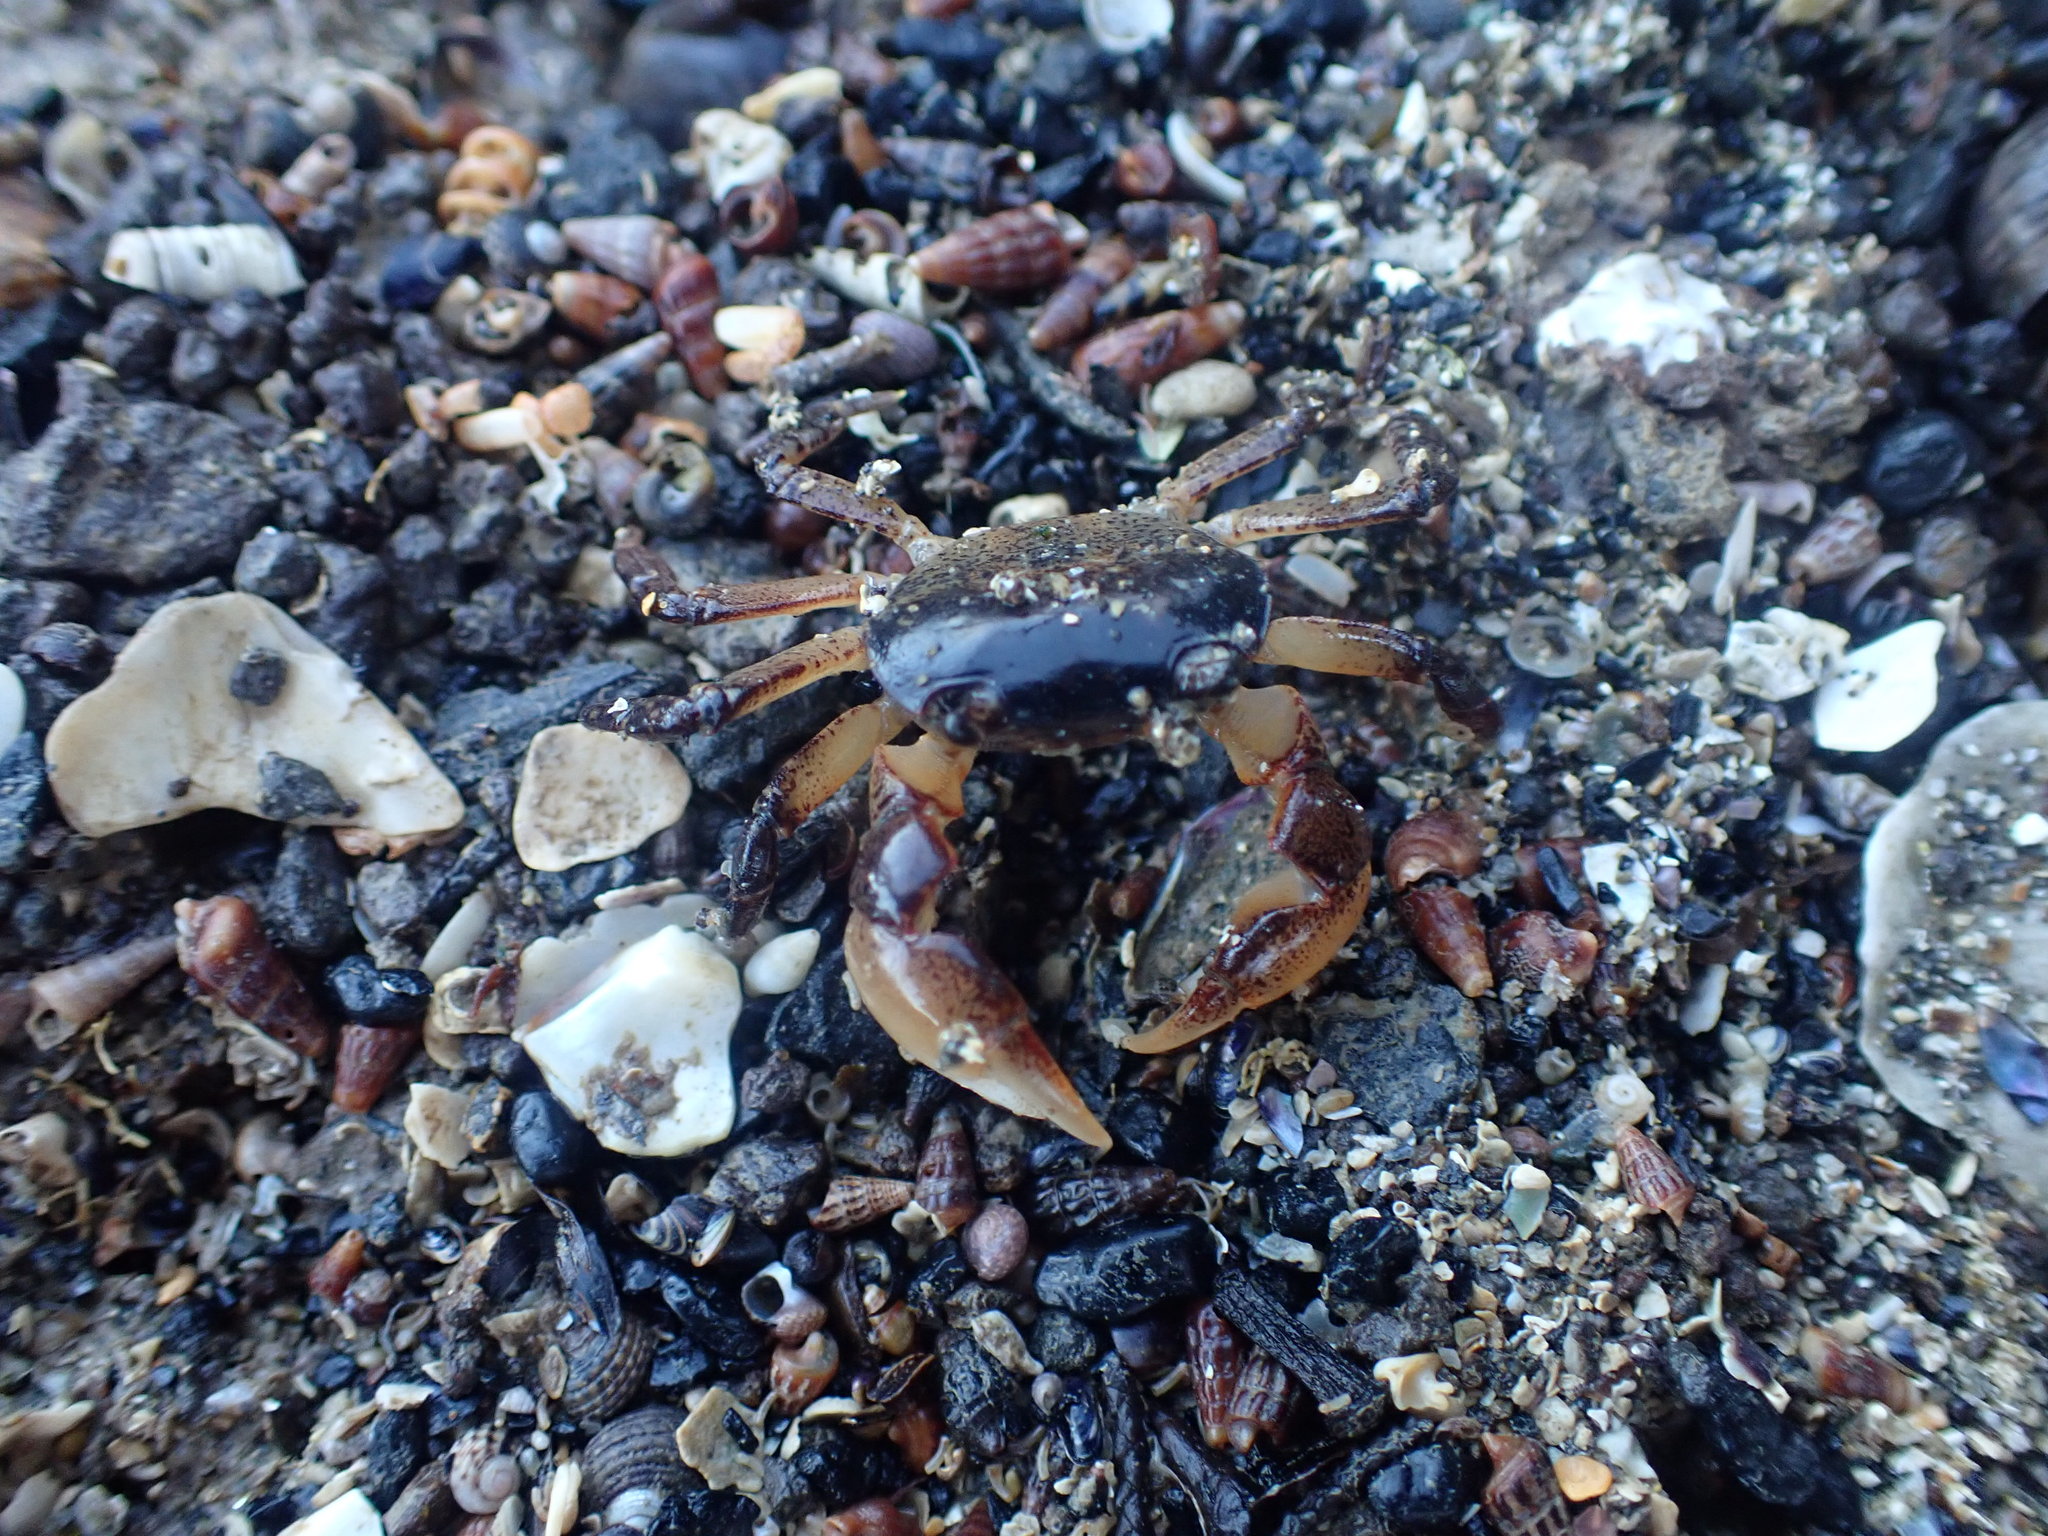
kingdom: Animalia
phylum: Arthropoda
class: Malacostraca
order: Decapoda
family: Varunidae
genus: Cyclograpsus
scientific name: Cyclograpsus lavauxi
